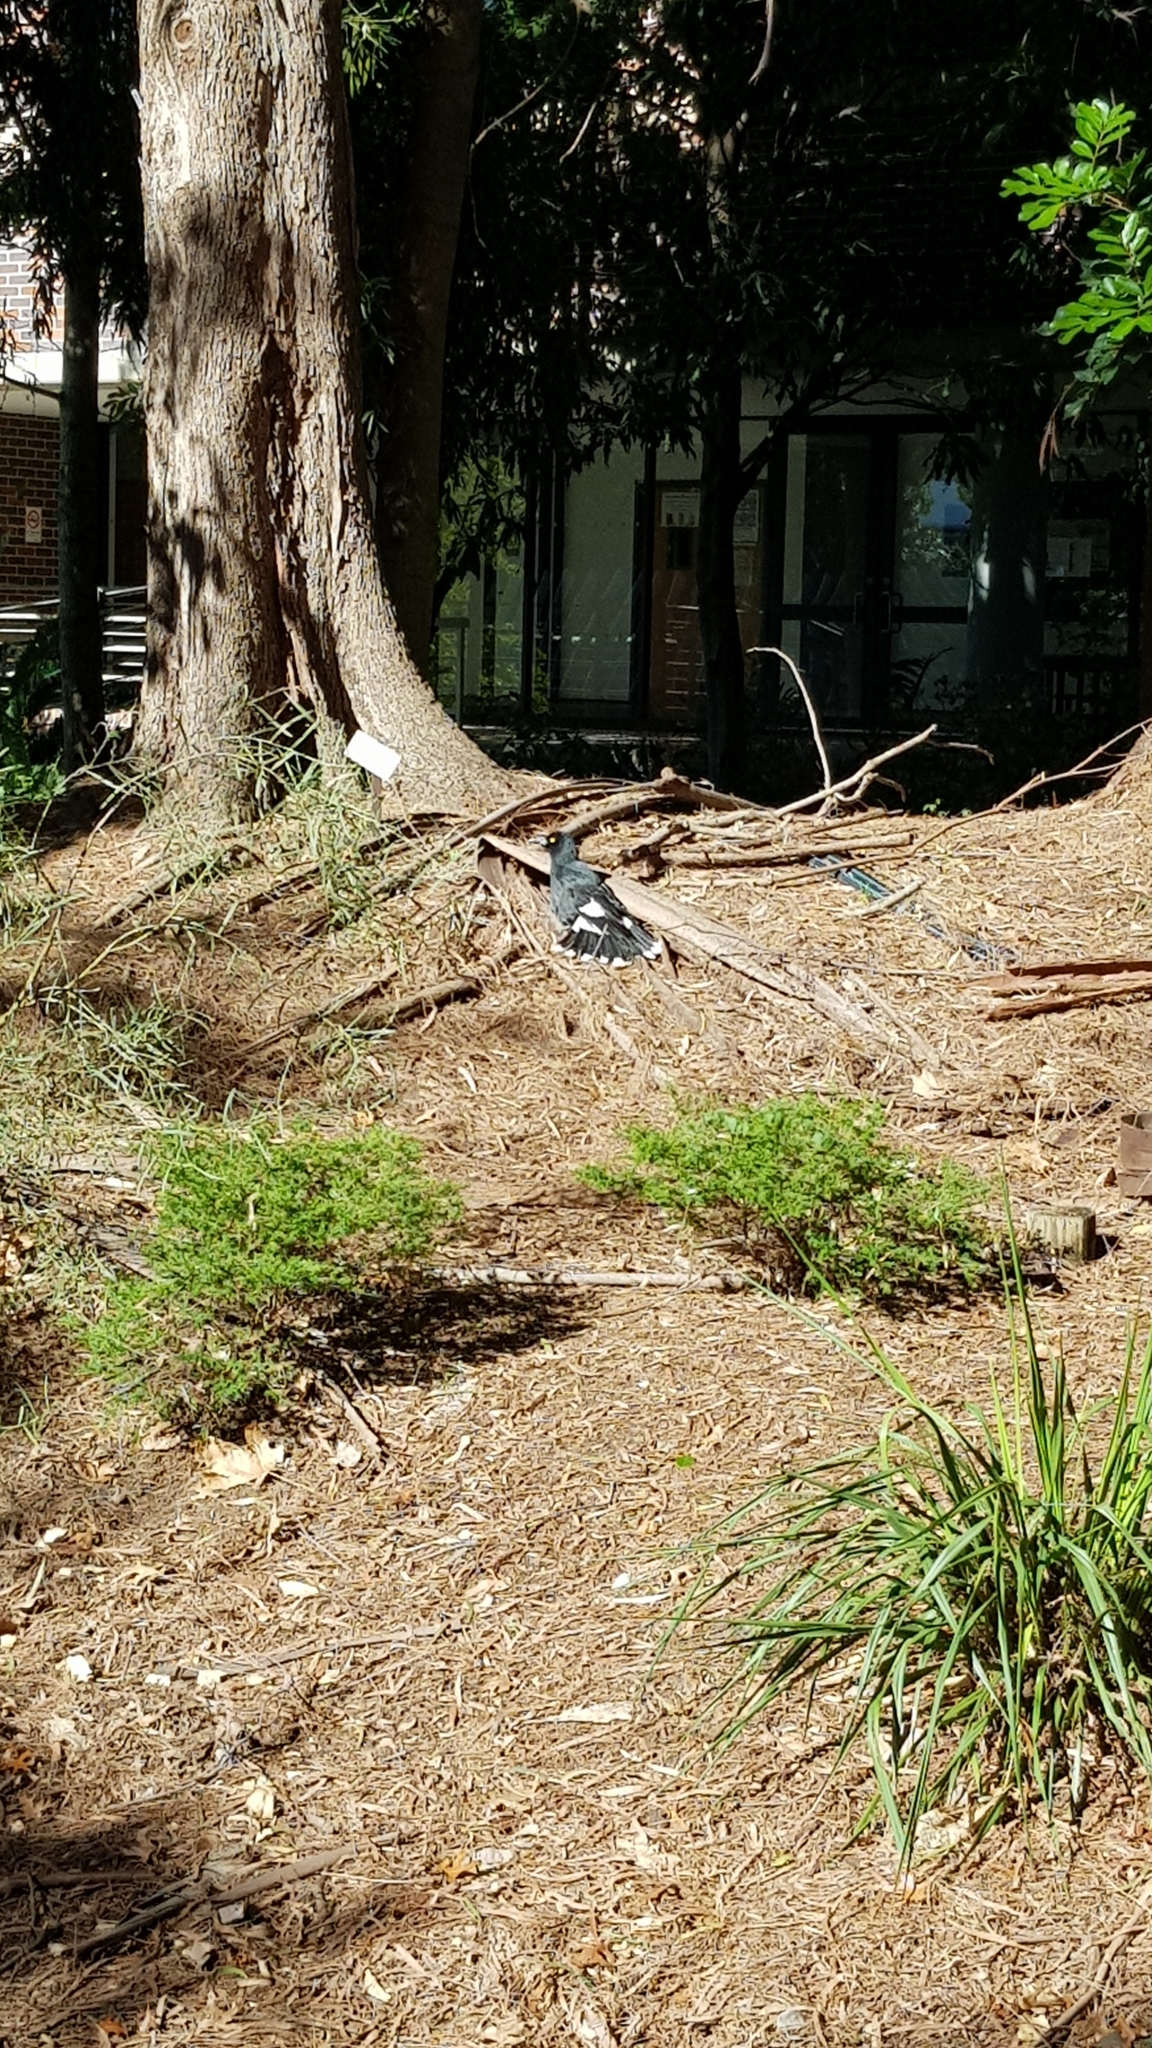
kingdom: Animalia
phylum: Chordata
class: Aves
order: Passeriformes
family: Cracticidae
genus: Strepera
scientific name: Strepera graculina
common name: Pied currawong
